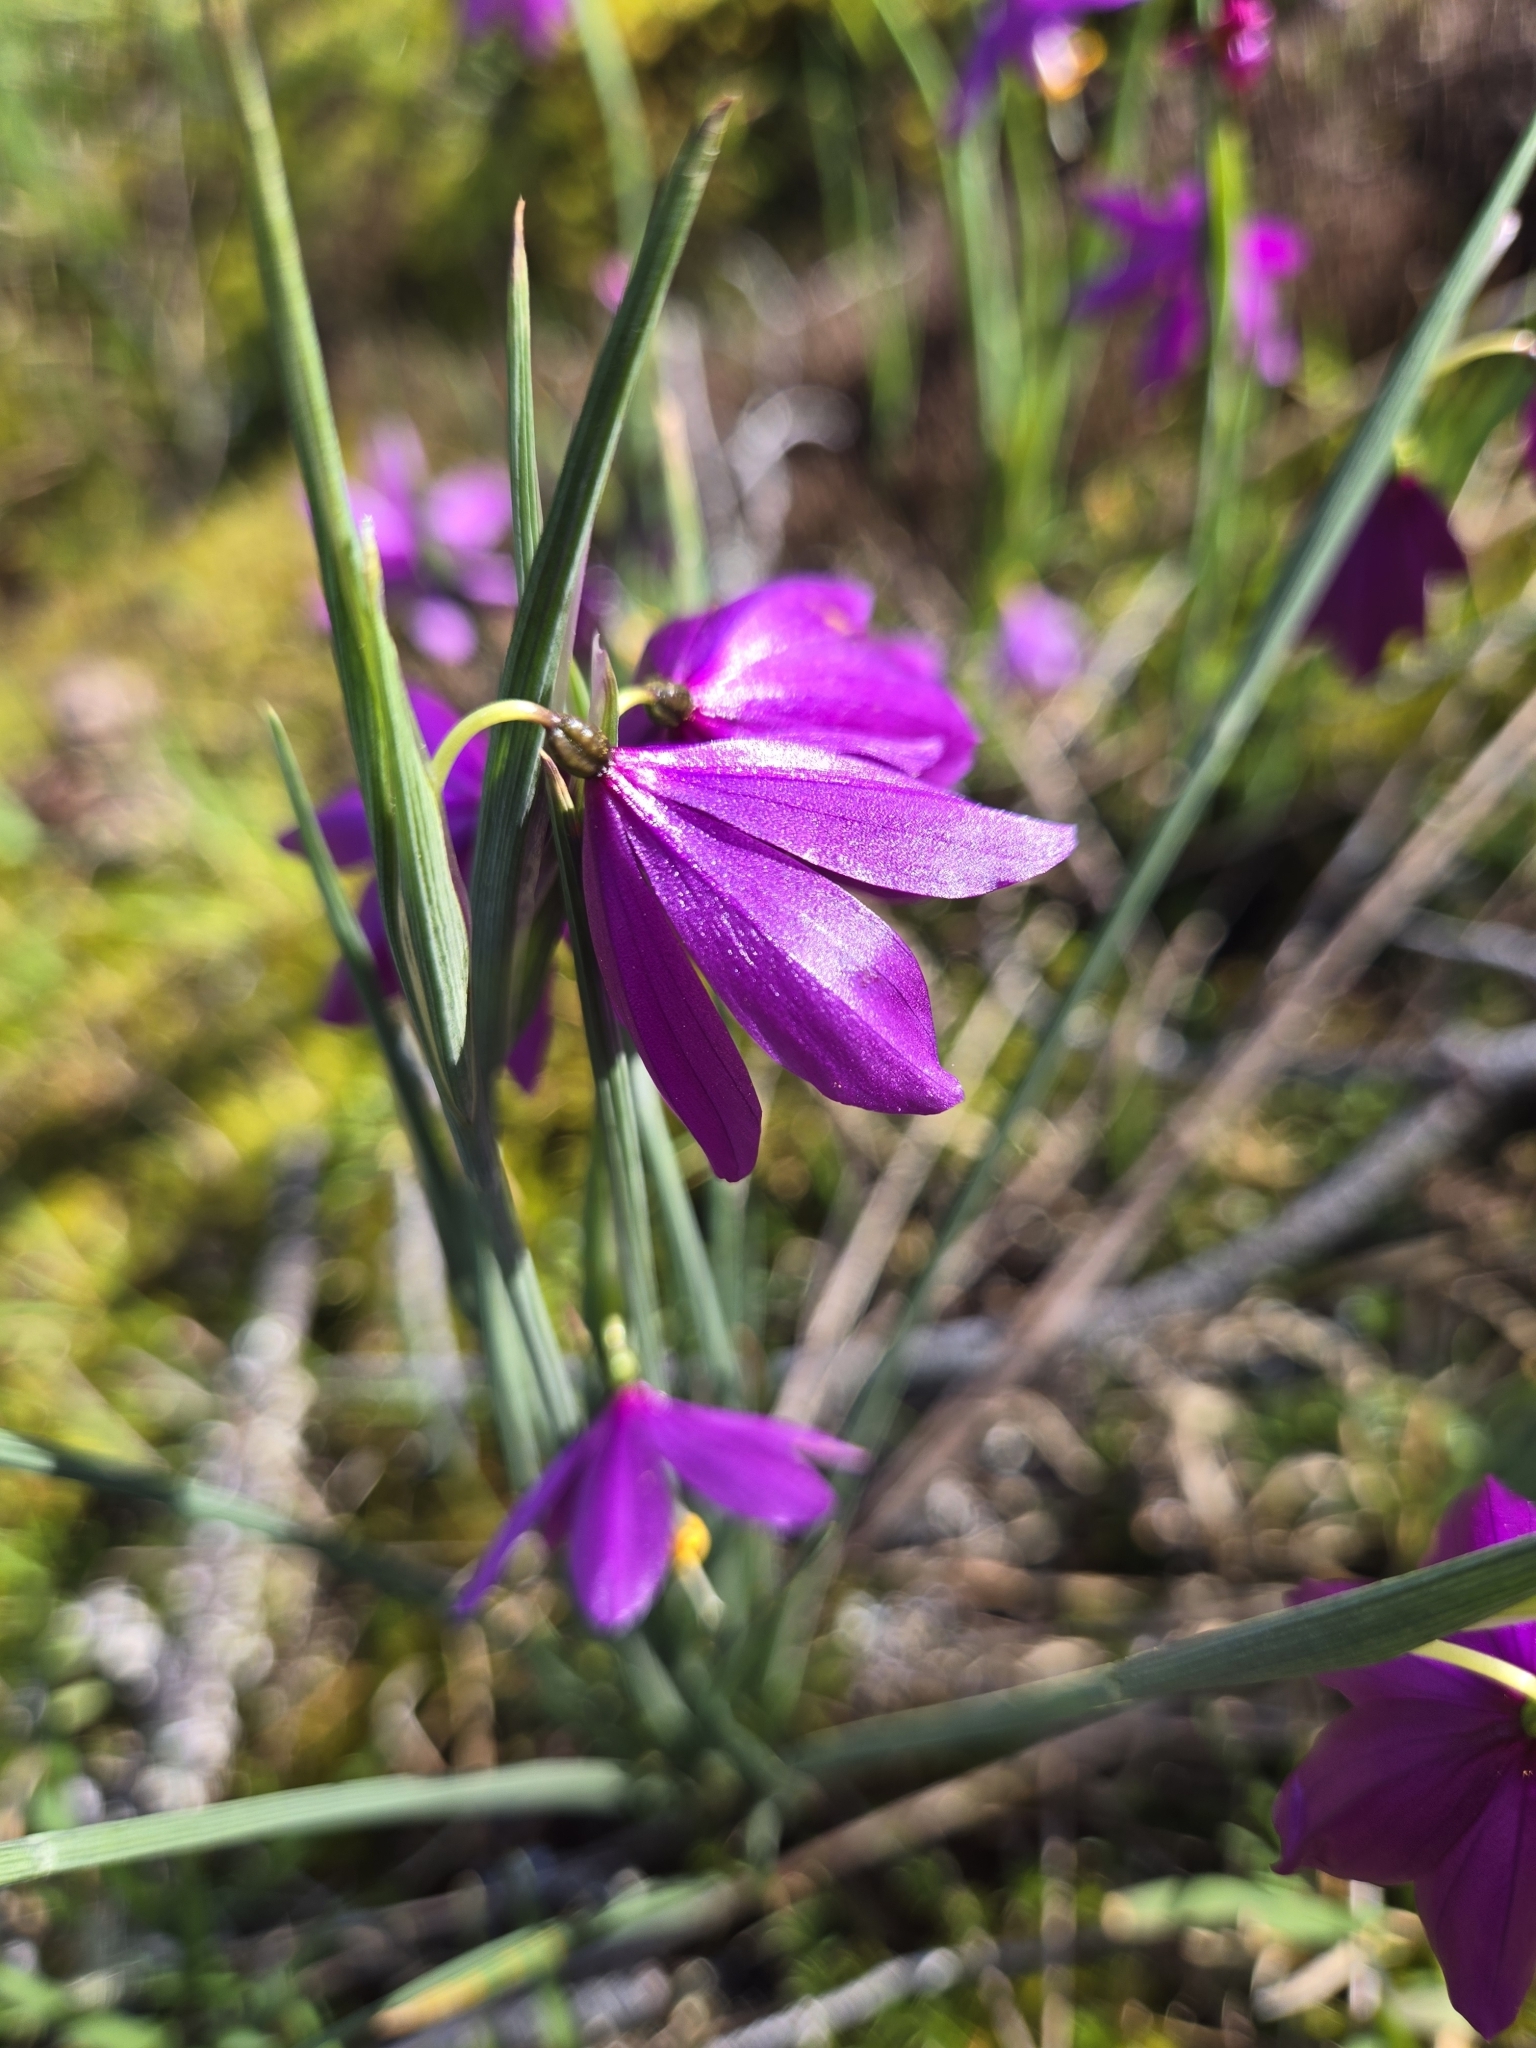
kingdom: Plantae
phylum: Tracheophyta
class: Liliopsida
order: Asparagales
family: Iridaceae
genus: Olsynium
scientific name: Olsynium douglasii
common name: Douglas' grasswidow
